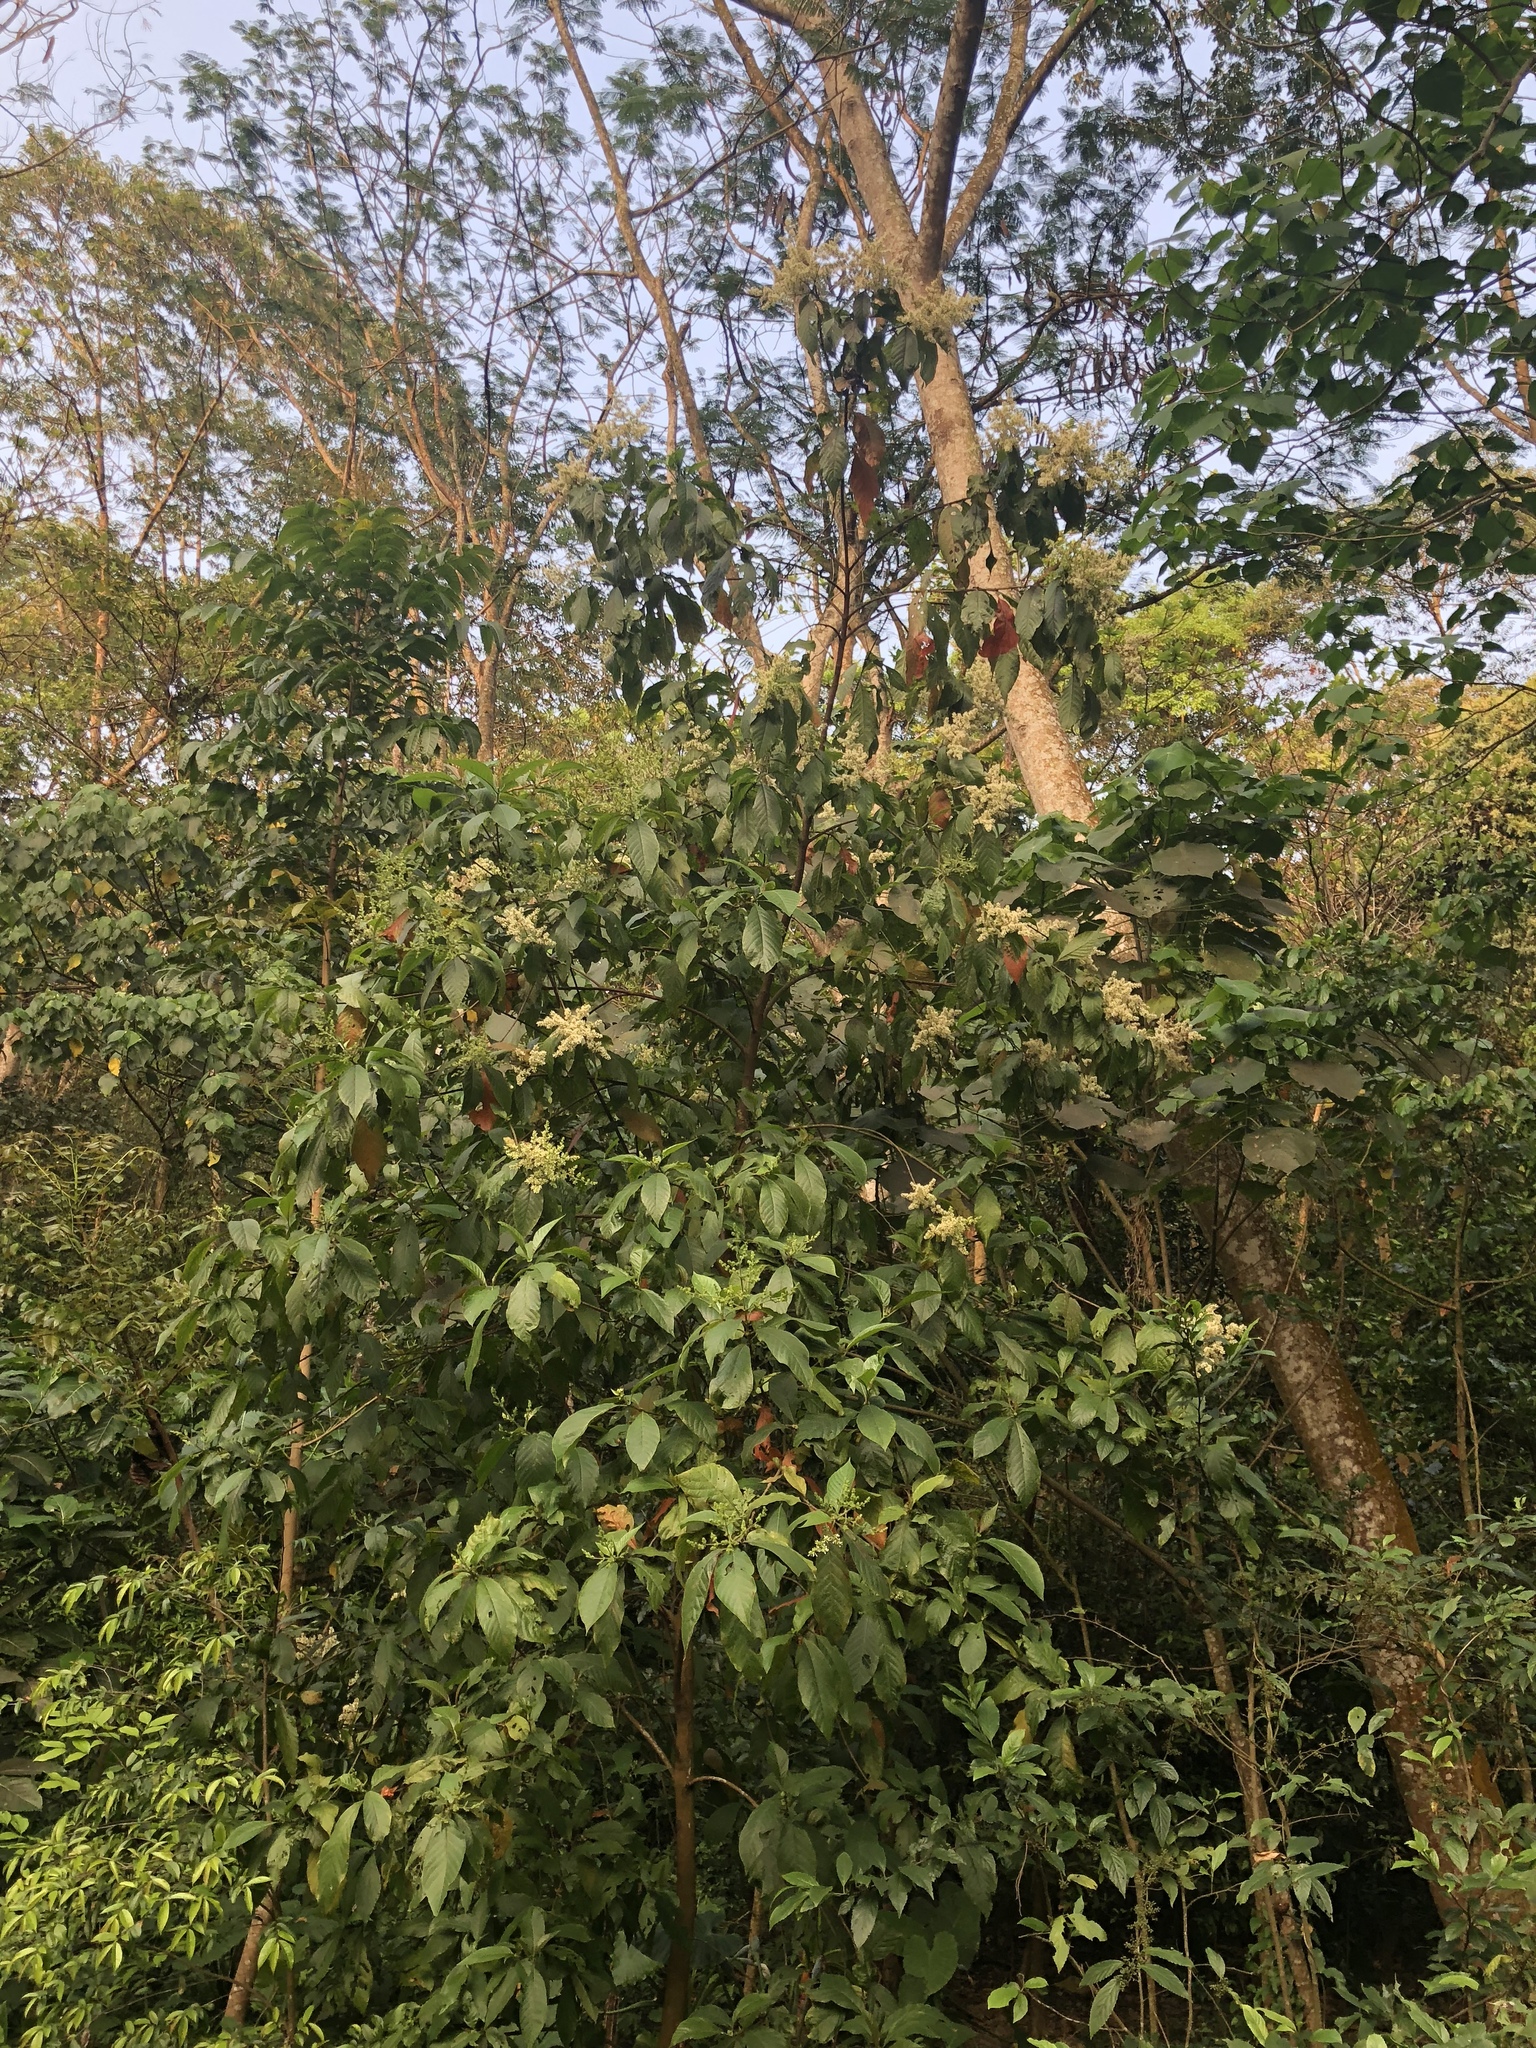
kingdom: Plantae
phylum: Tracheophyta
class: Magnoliopsida
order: Gentianales
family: Rubiaceae
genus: Wendlandia
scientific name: Wendlandia uvariifolia
